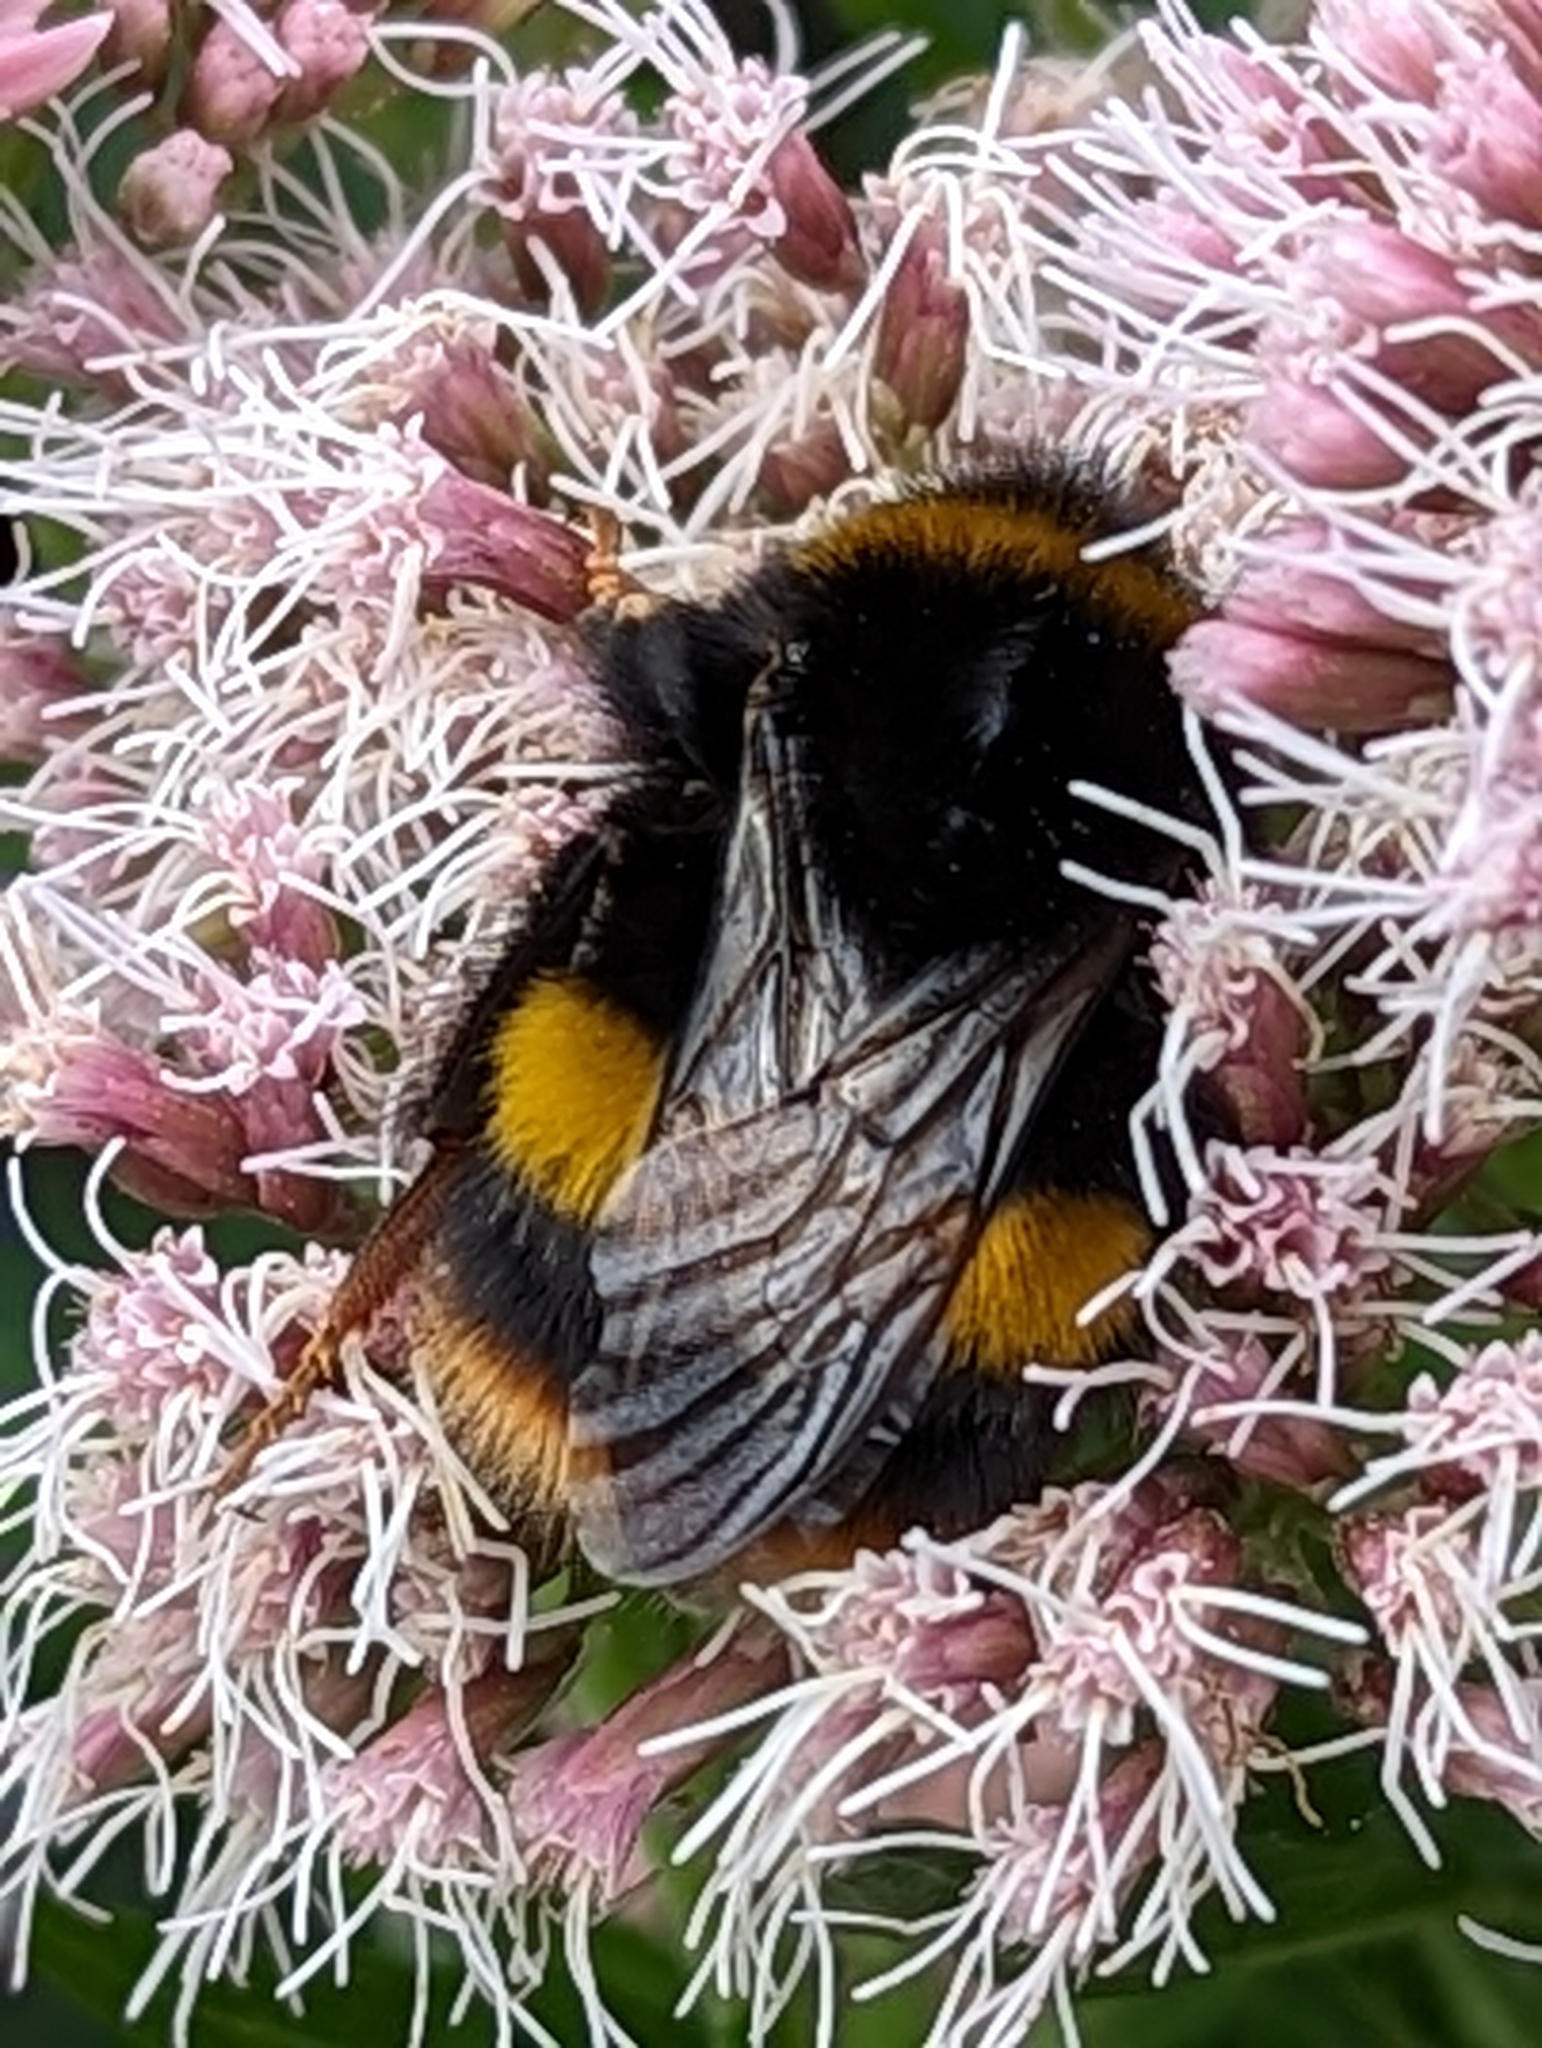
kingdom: Animalia
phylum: Arthropoda
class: Insecta
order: Hymenoptera
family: Apidae
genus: Bombus
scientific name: Bombus terrestris
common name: Buff-tailed bumblebee
